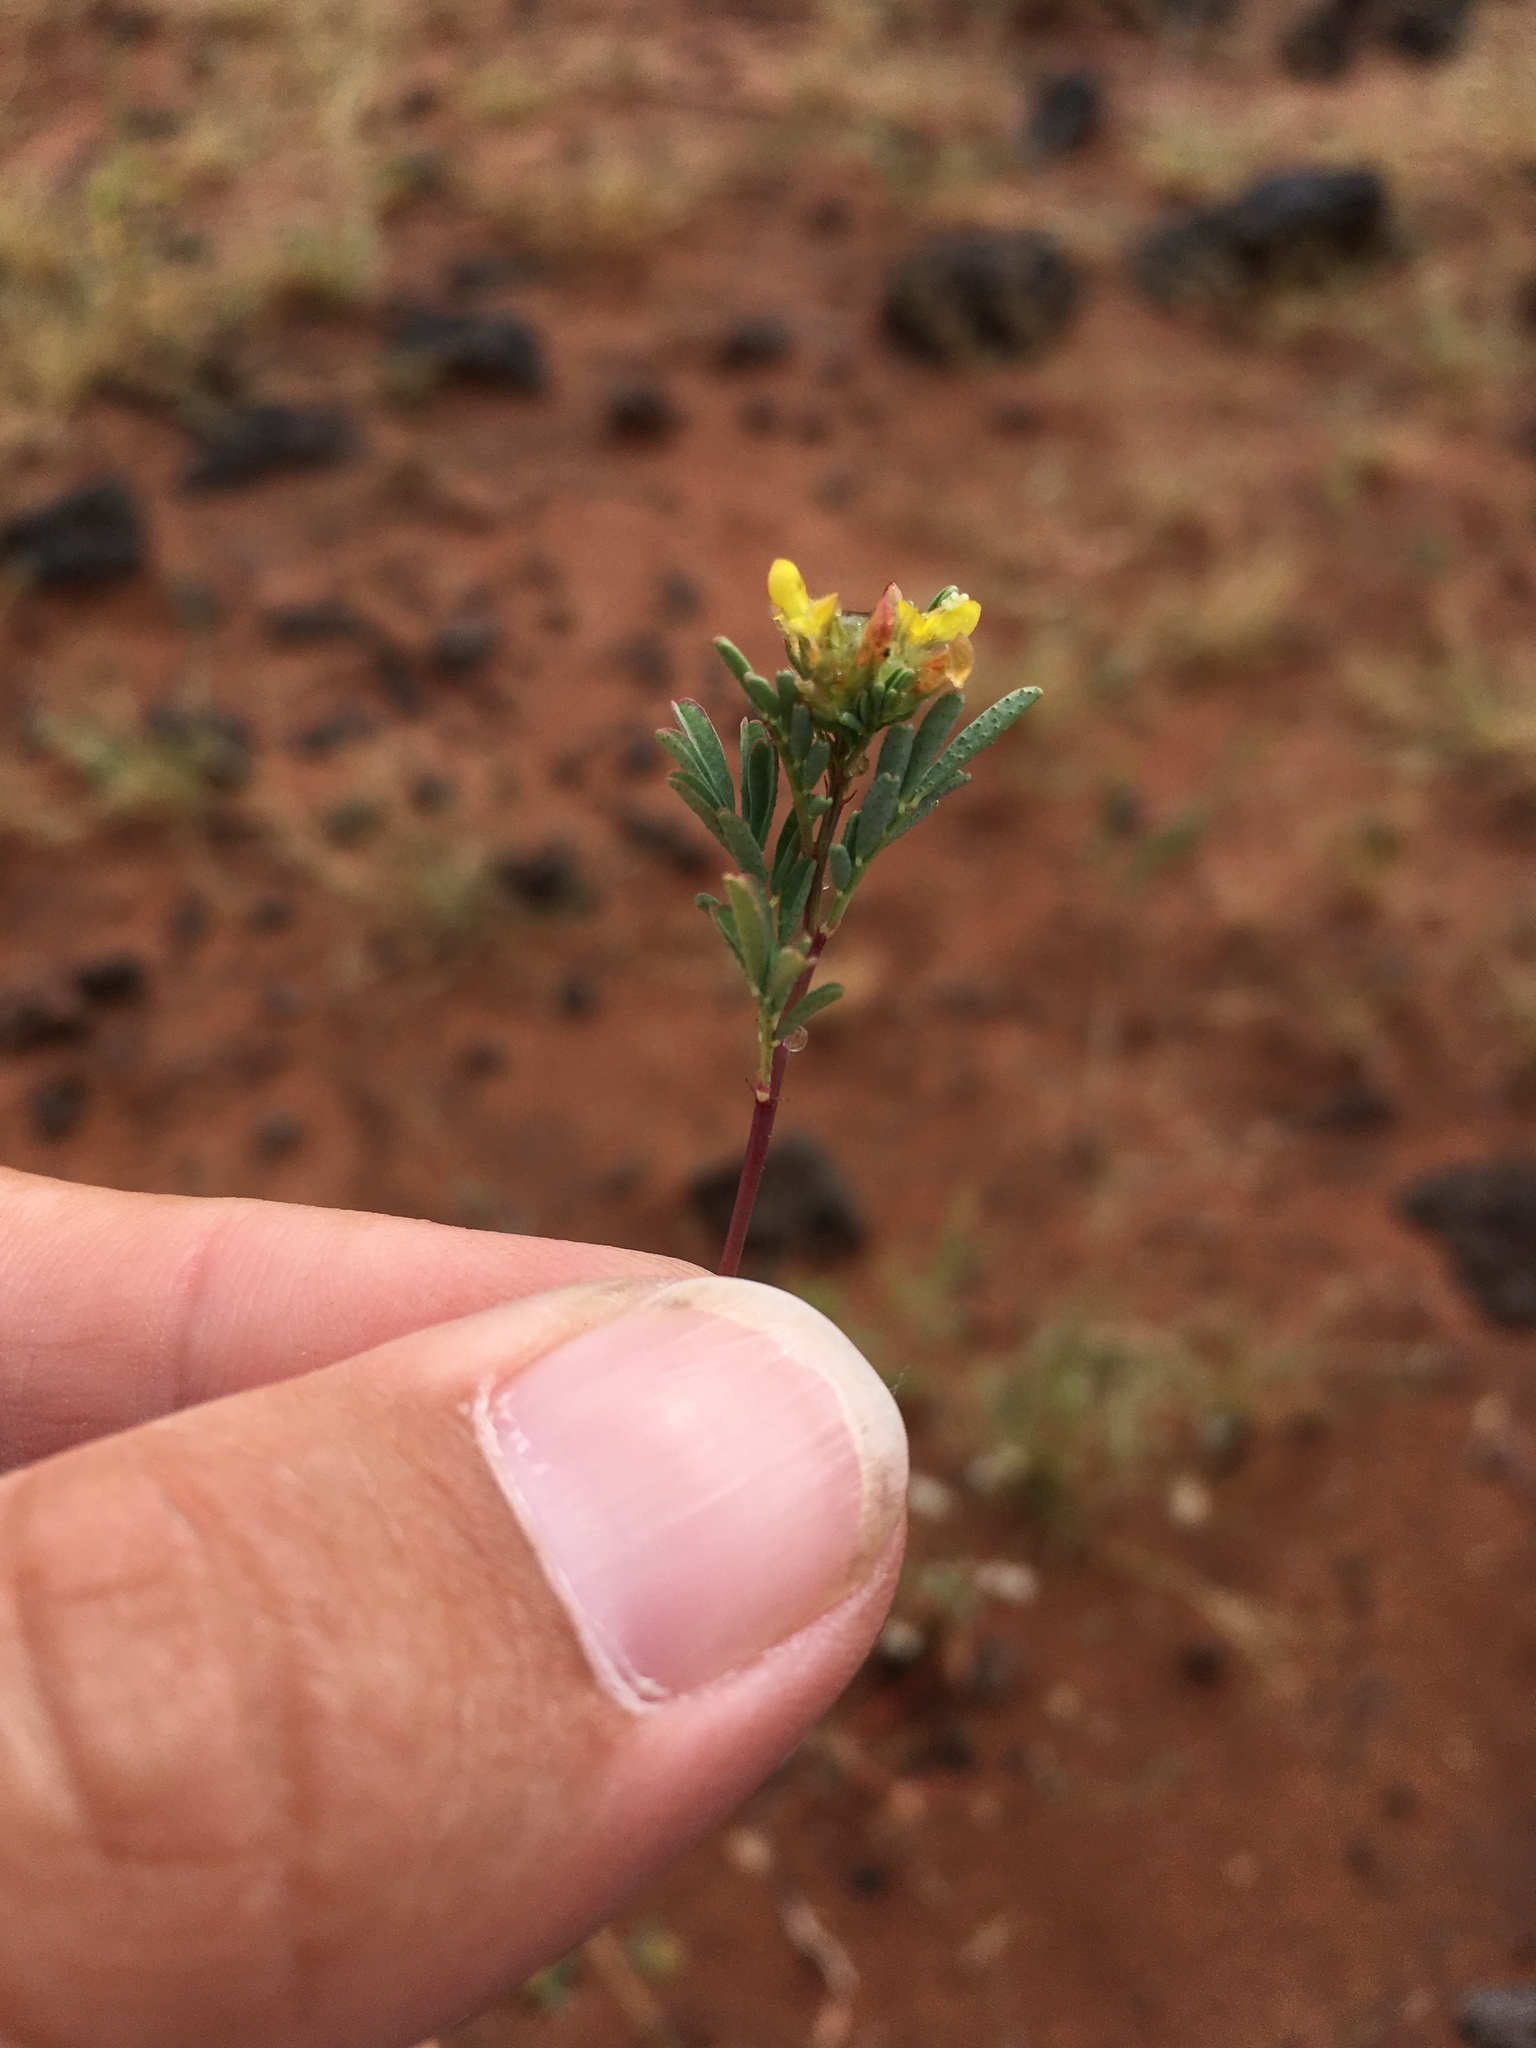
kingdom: Plantae
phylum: Tracheophyta
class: Magnoliopsida
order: Fabales
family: Fabaceae
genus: Dalea
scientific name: Dalea brachystachya
